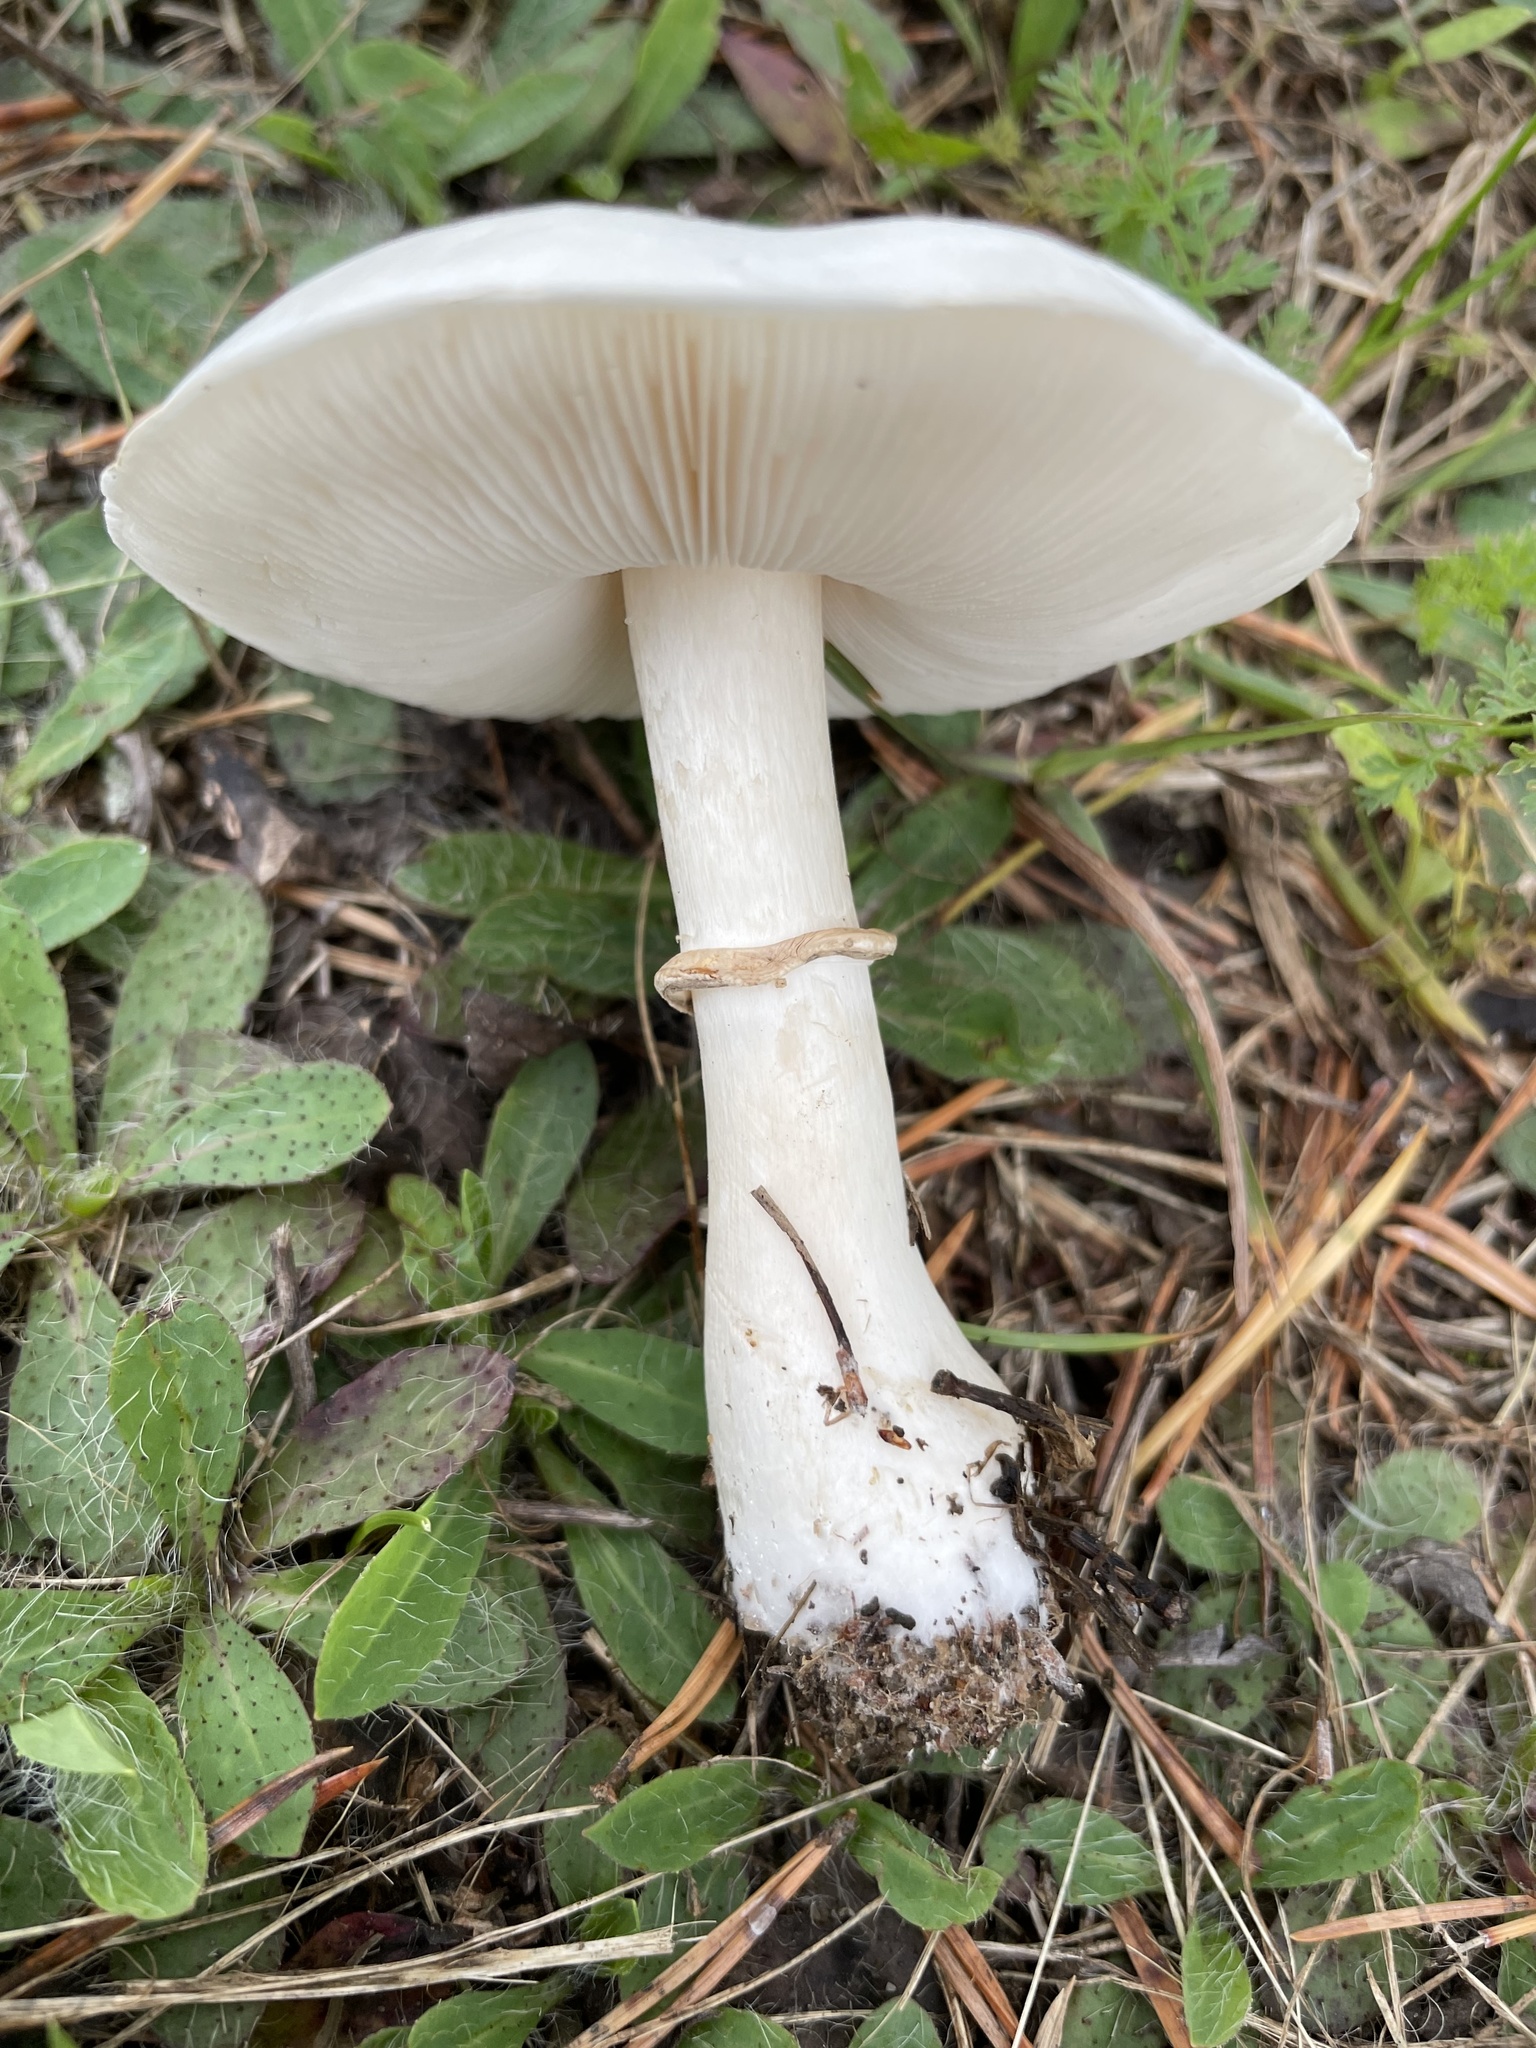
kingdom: Fungi
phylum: Basidiomycota
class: Agaricomycetes
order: Agaricales
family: Agaricaceae
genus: Leucoagaricus
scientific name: Leucoagaricus leucothites
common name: White dapperling
